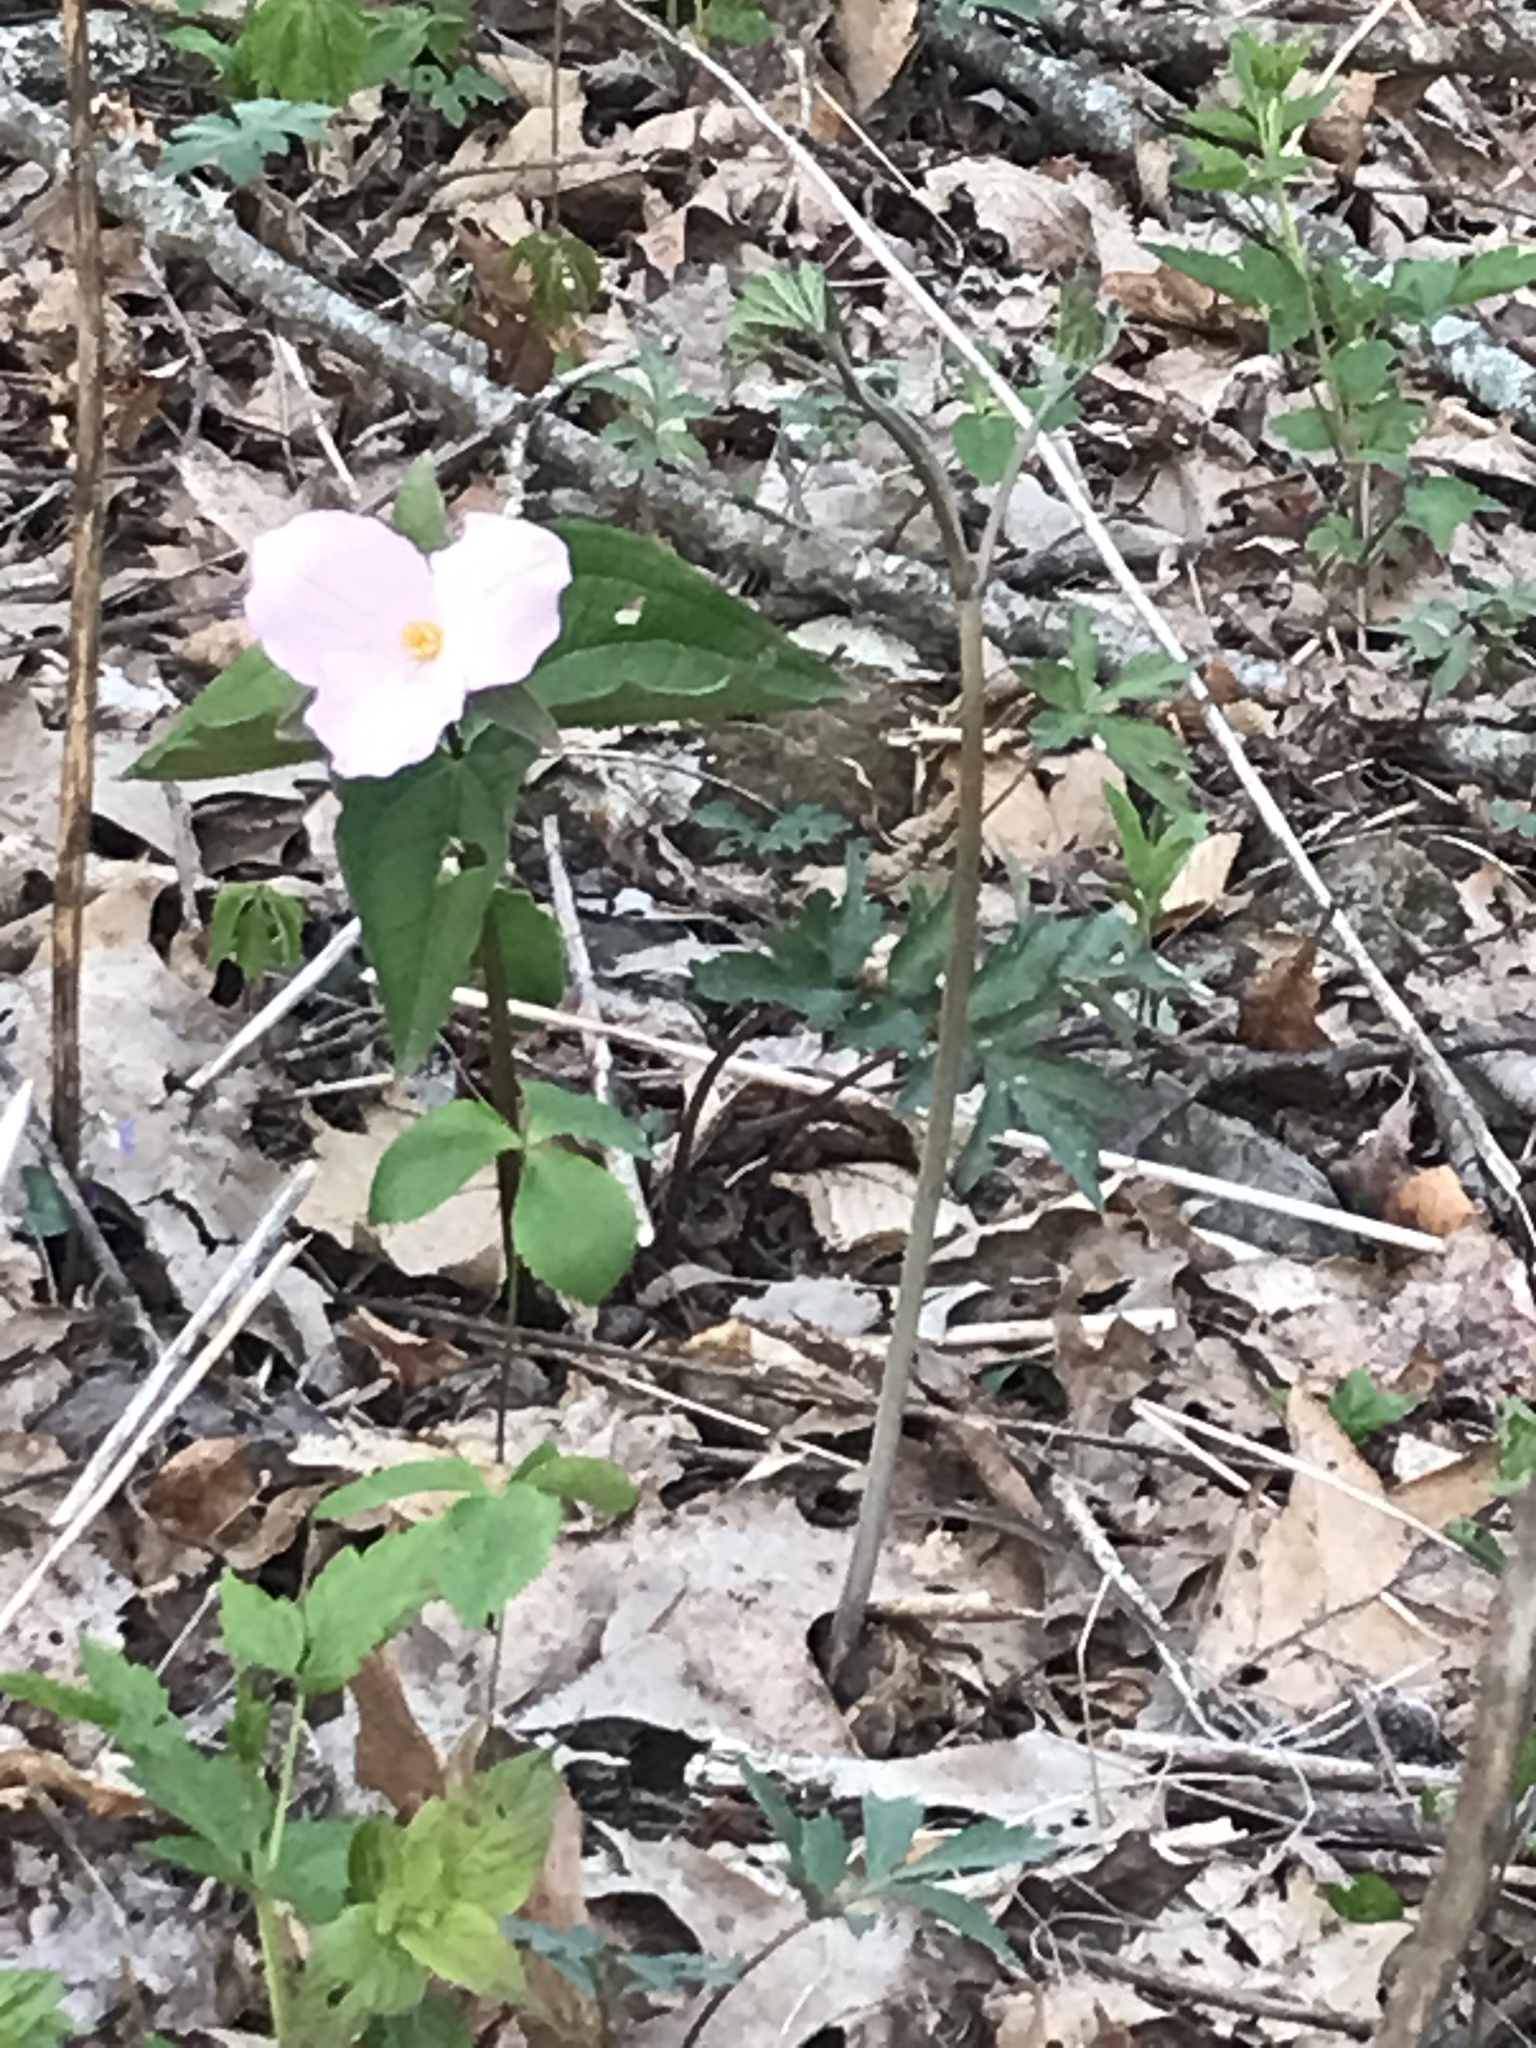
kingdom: Plantae
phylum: Tracheophyta
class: Liliopsida
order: Liliales
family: Melanthiaceae
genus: Trillium
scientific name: Trillium grandiflorum
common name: Great white trillium
